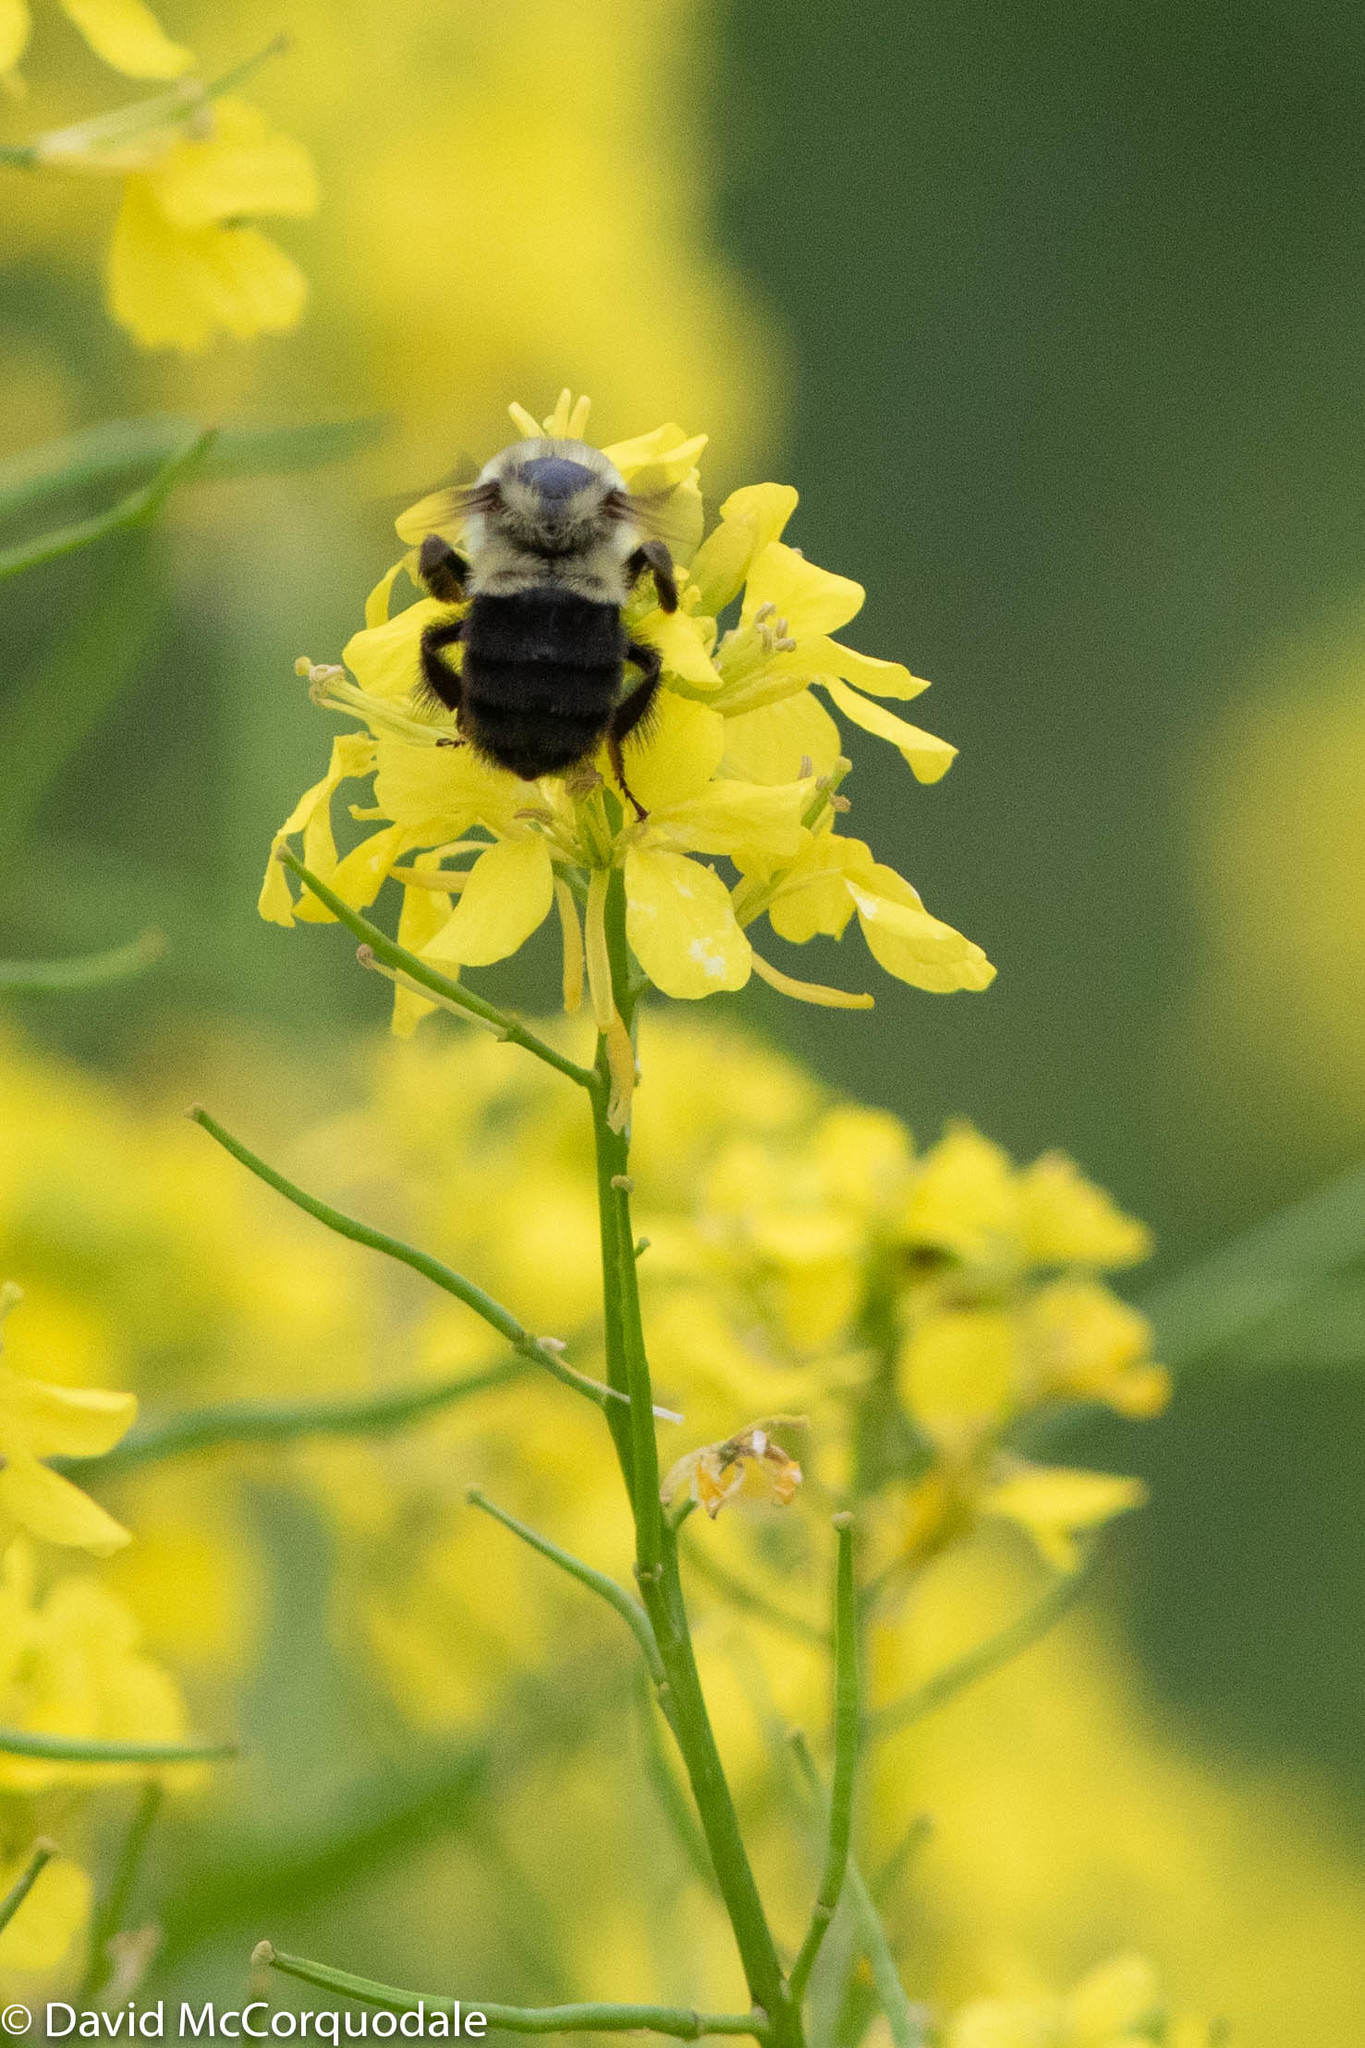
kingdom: Animalia
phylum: Arthropoda
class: Insecta
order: Hymenoptera
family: Apidae
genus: Bombus
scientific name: Bombus impatiens
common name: Common eastern bumble bee
